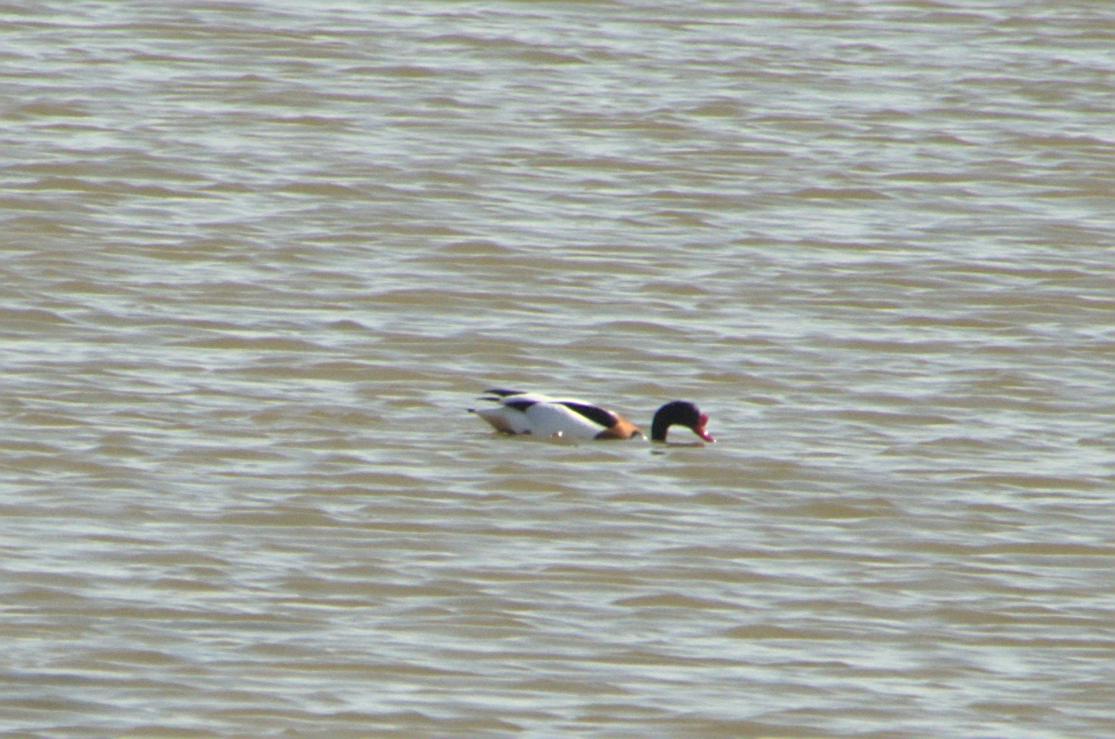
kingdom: Animalia
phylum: Chordata
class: Aves
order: Anseriformes
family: Anatidae
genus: Tadorna
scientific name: Tadorna tadorna
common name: Common shelduck
